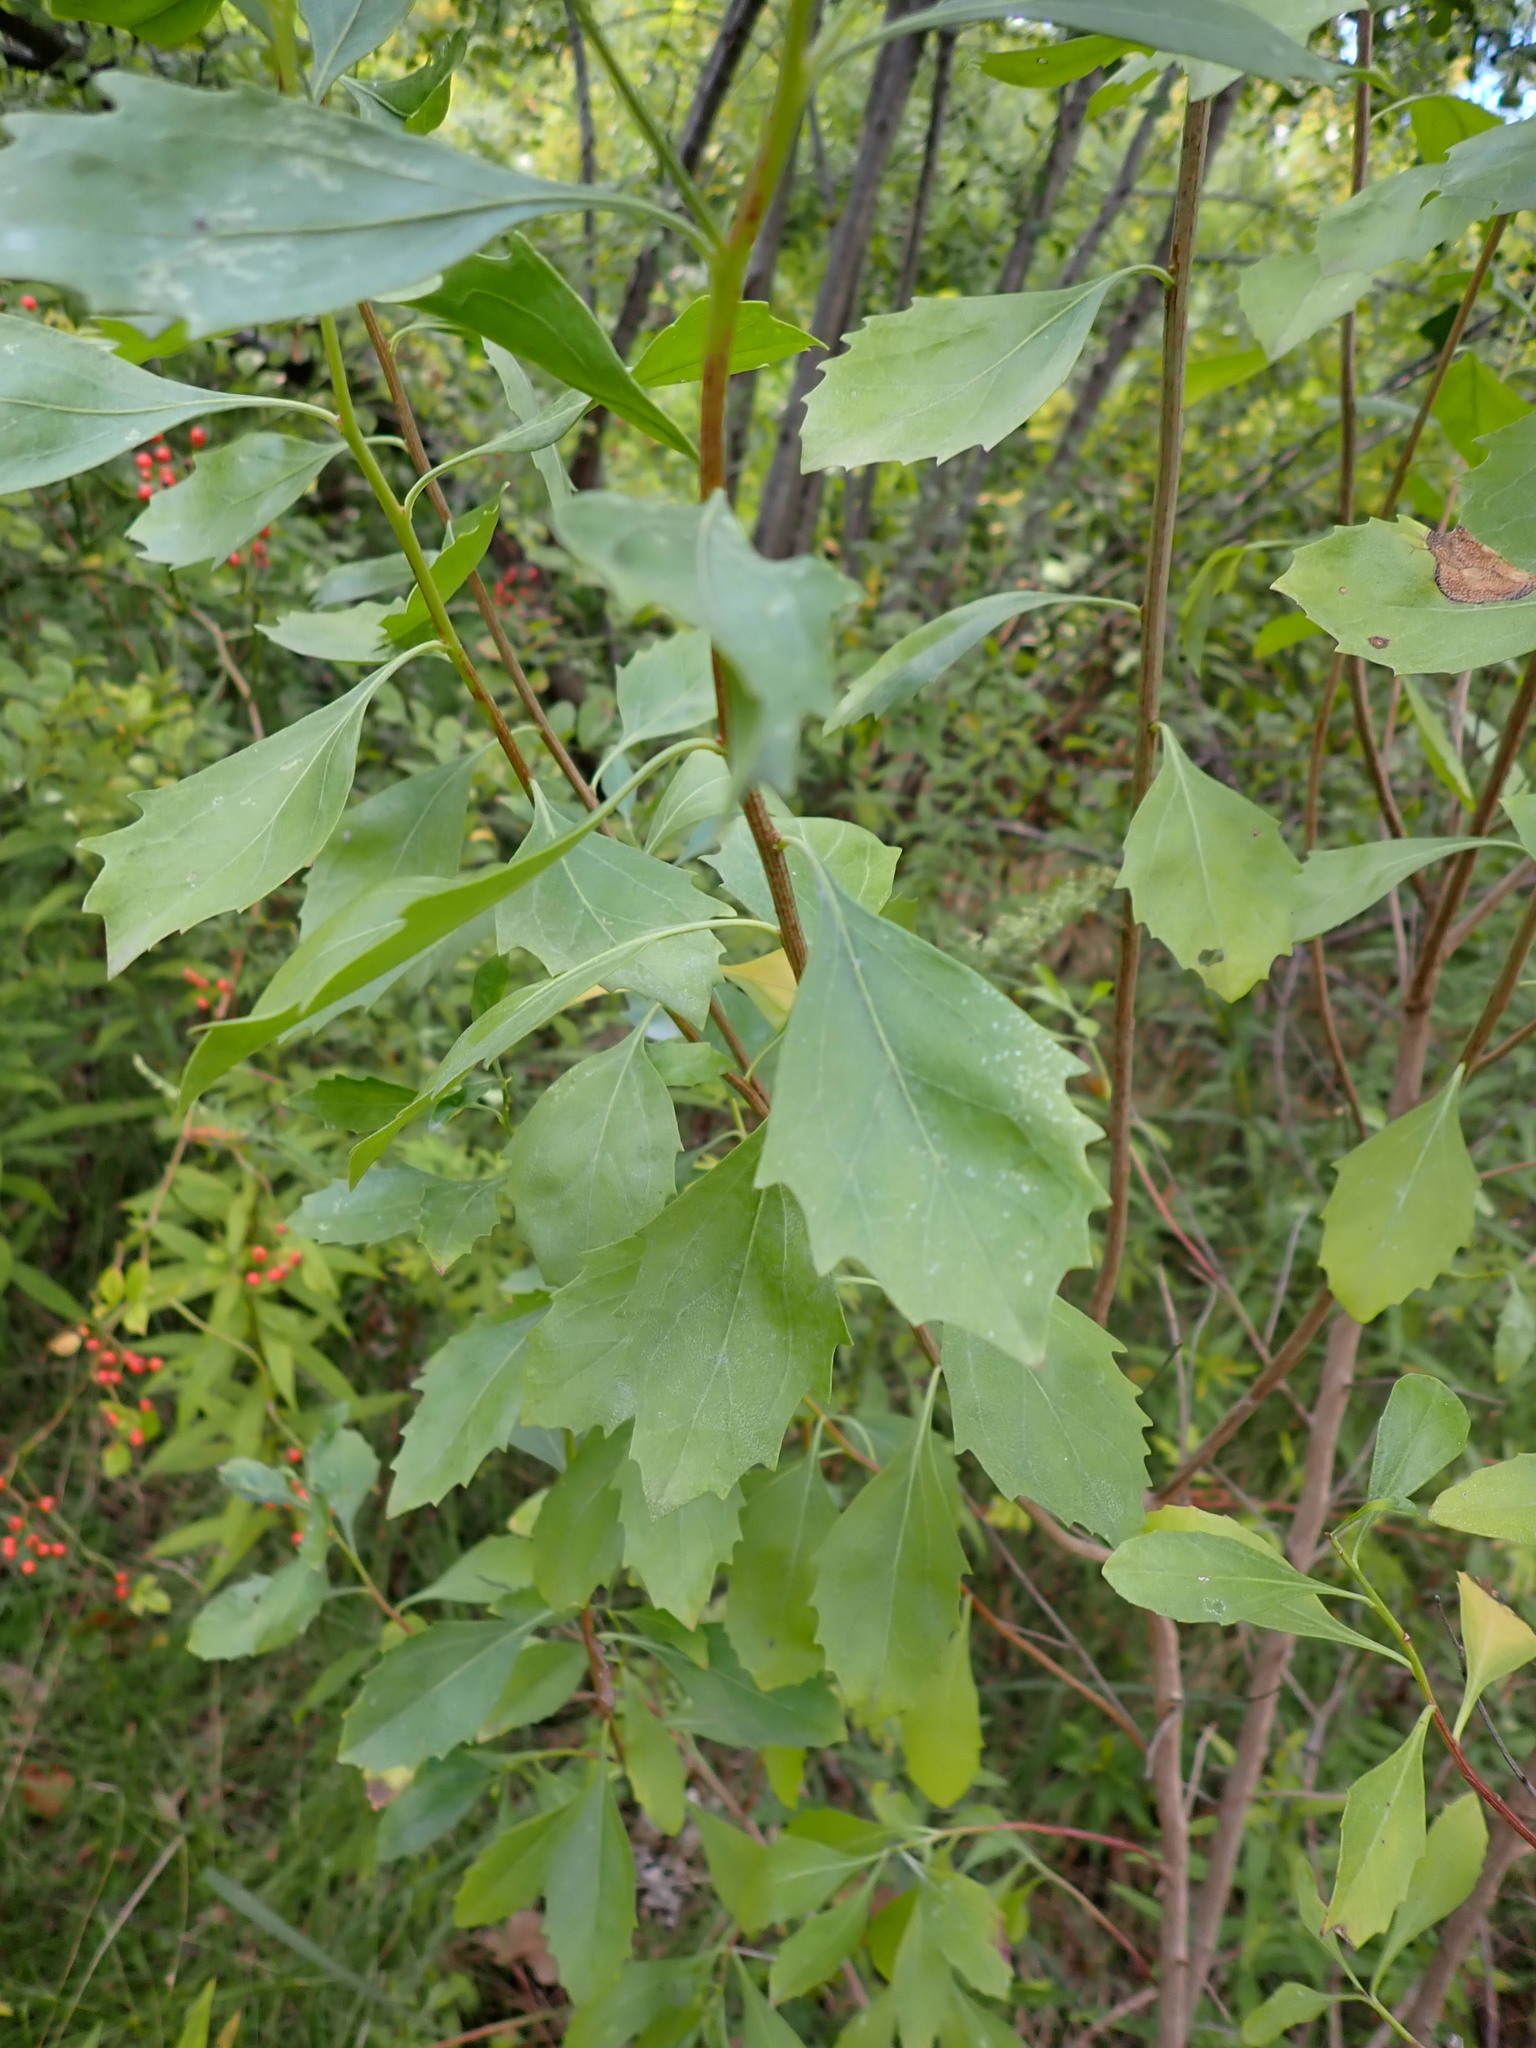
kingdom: Plantae
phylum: Tracheophyta
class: Magnoliopsida
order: Asterales
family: Asteraceae
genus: Baccharis
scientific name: Baccharis halimifolia
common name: Eastern baccharis
